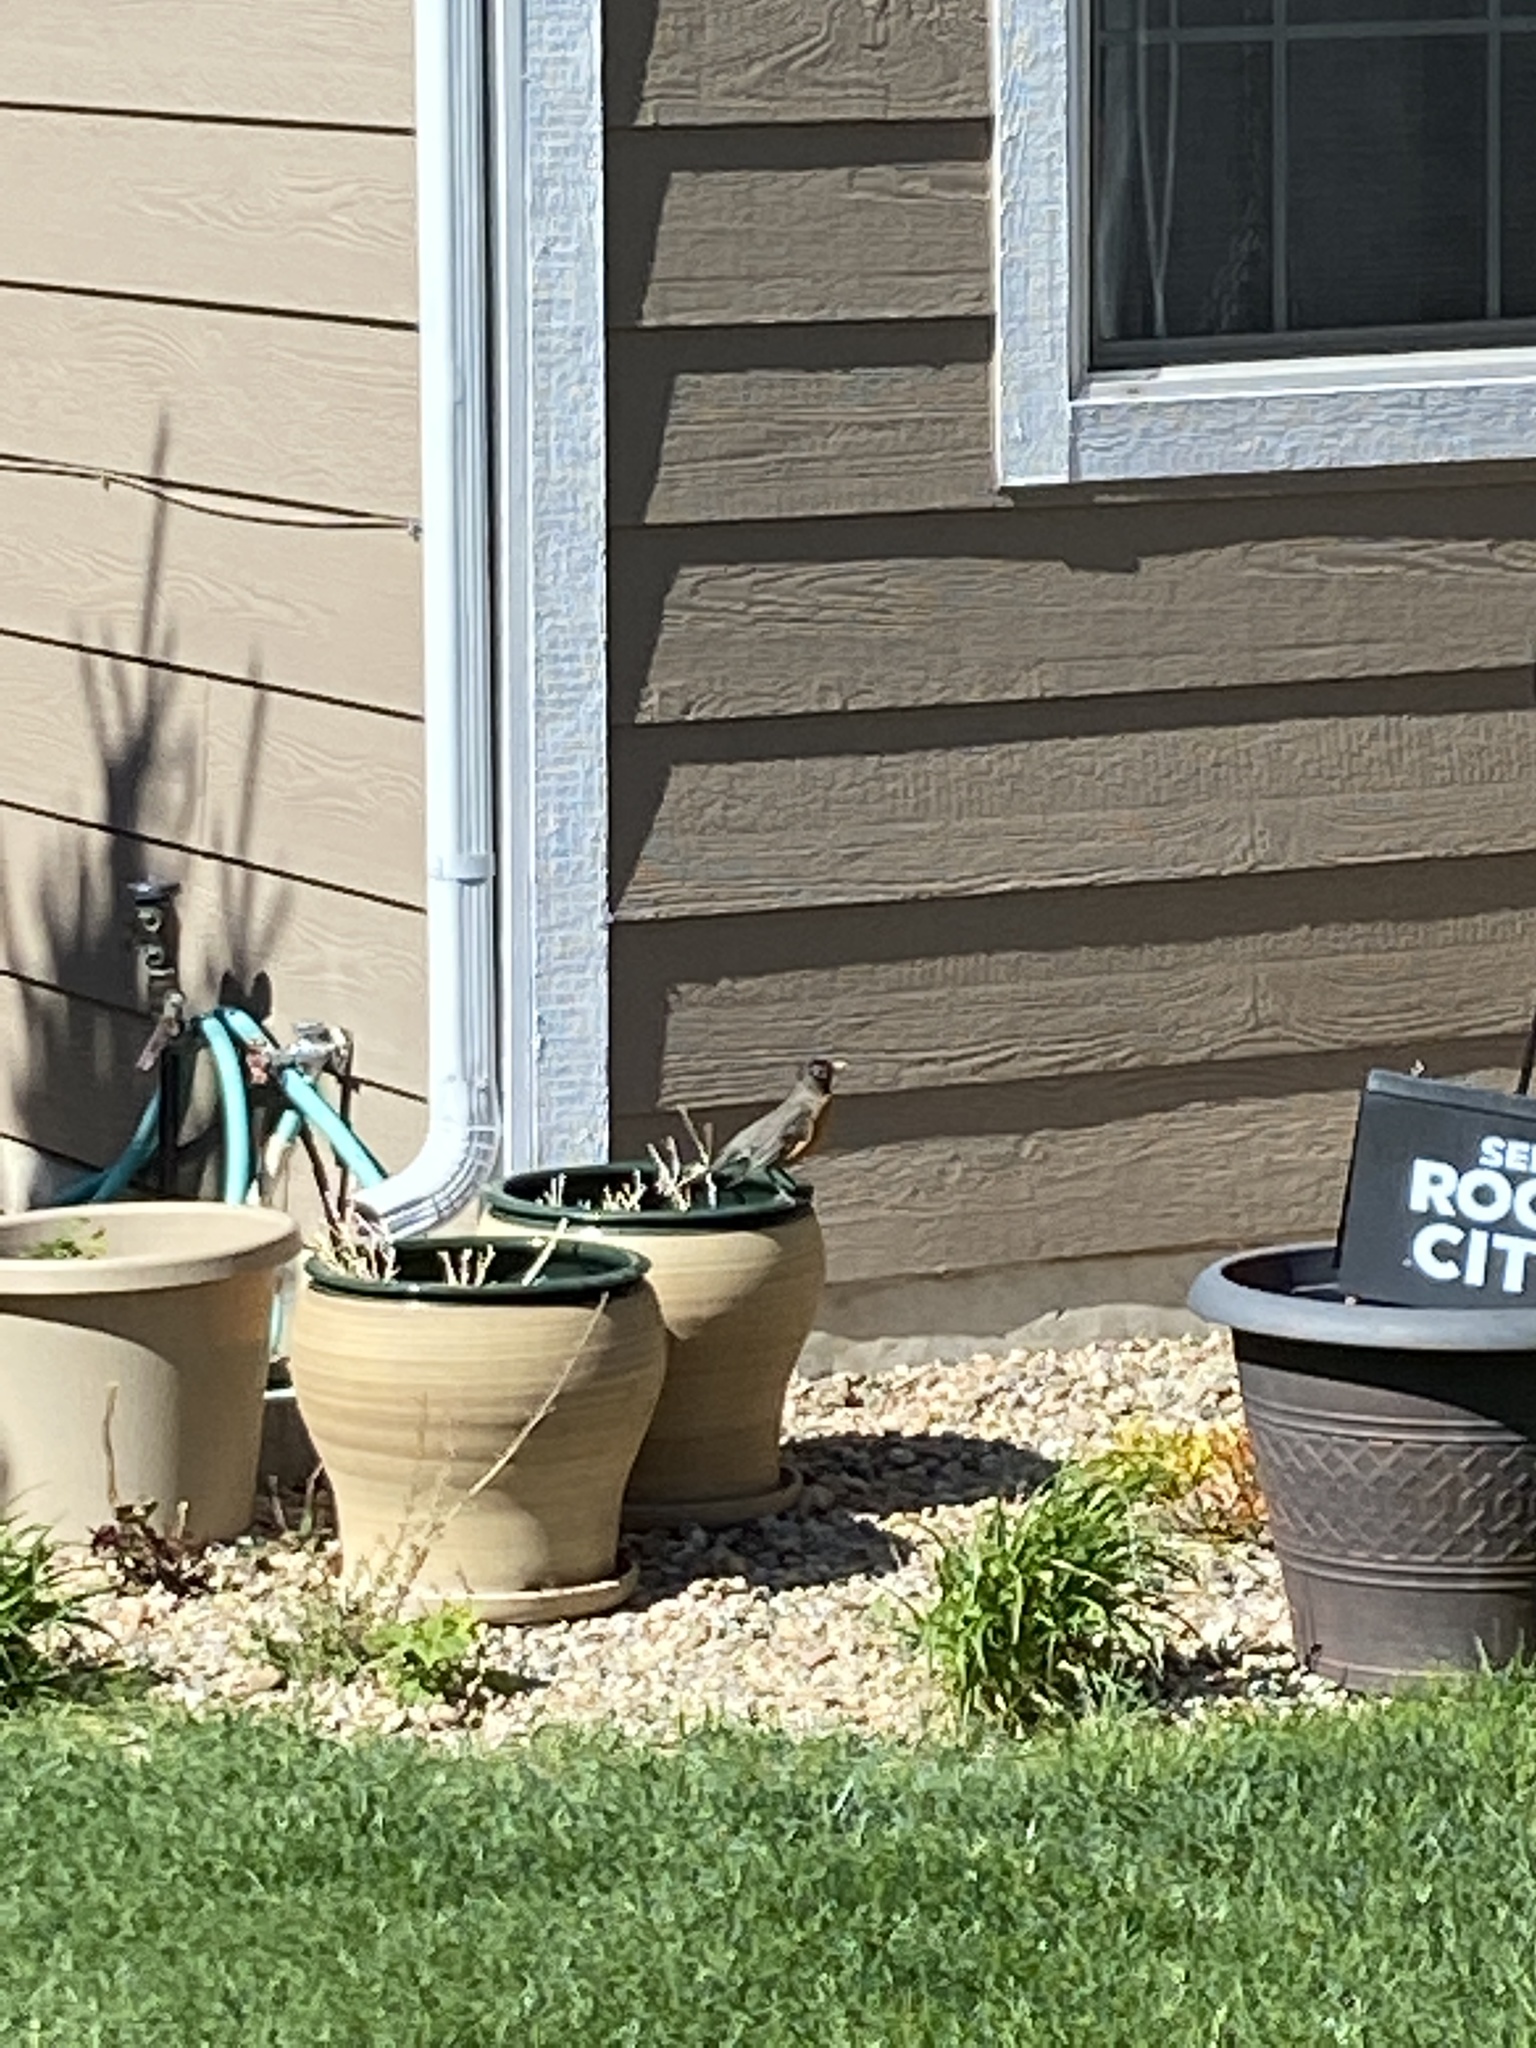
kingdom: Animalia
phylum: Chordata
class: Aves
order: Passeriformes
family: Turdidae
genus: Turdus
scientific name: Turdus migratorius
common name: American robin
